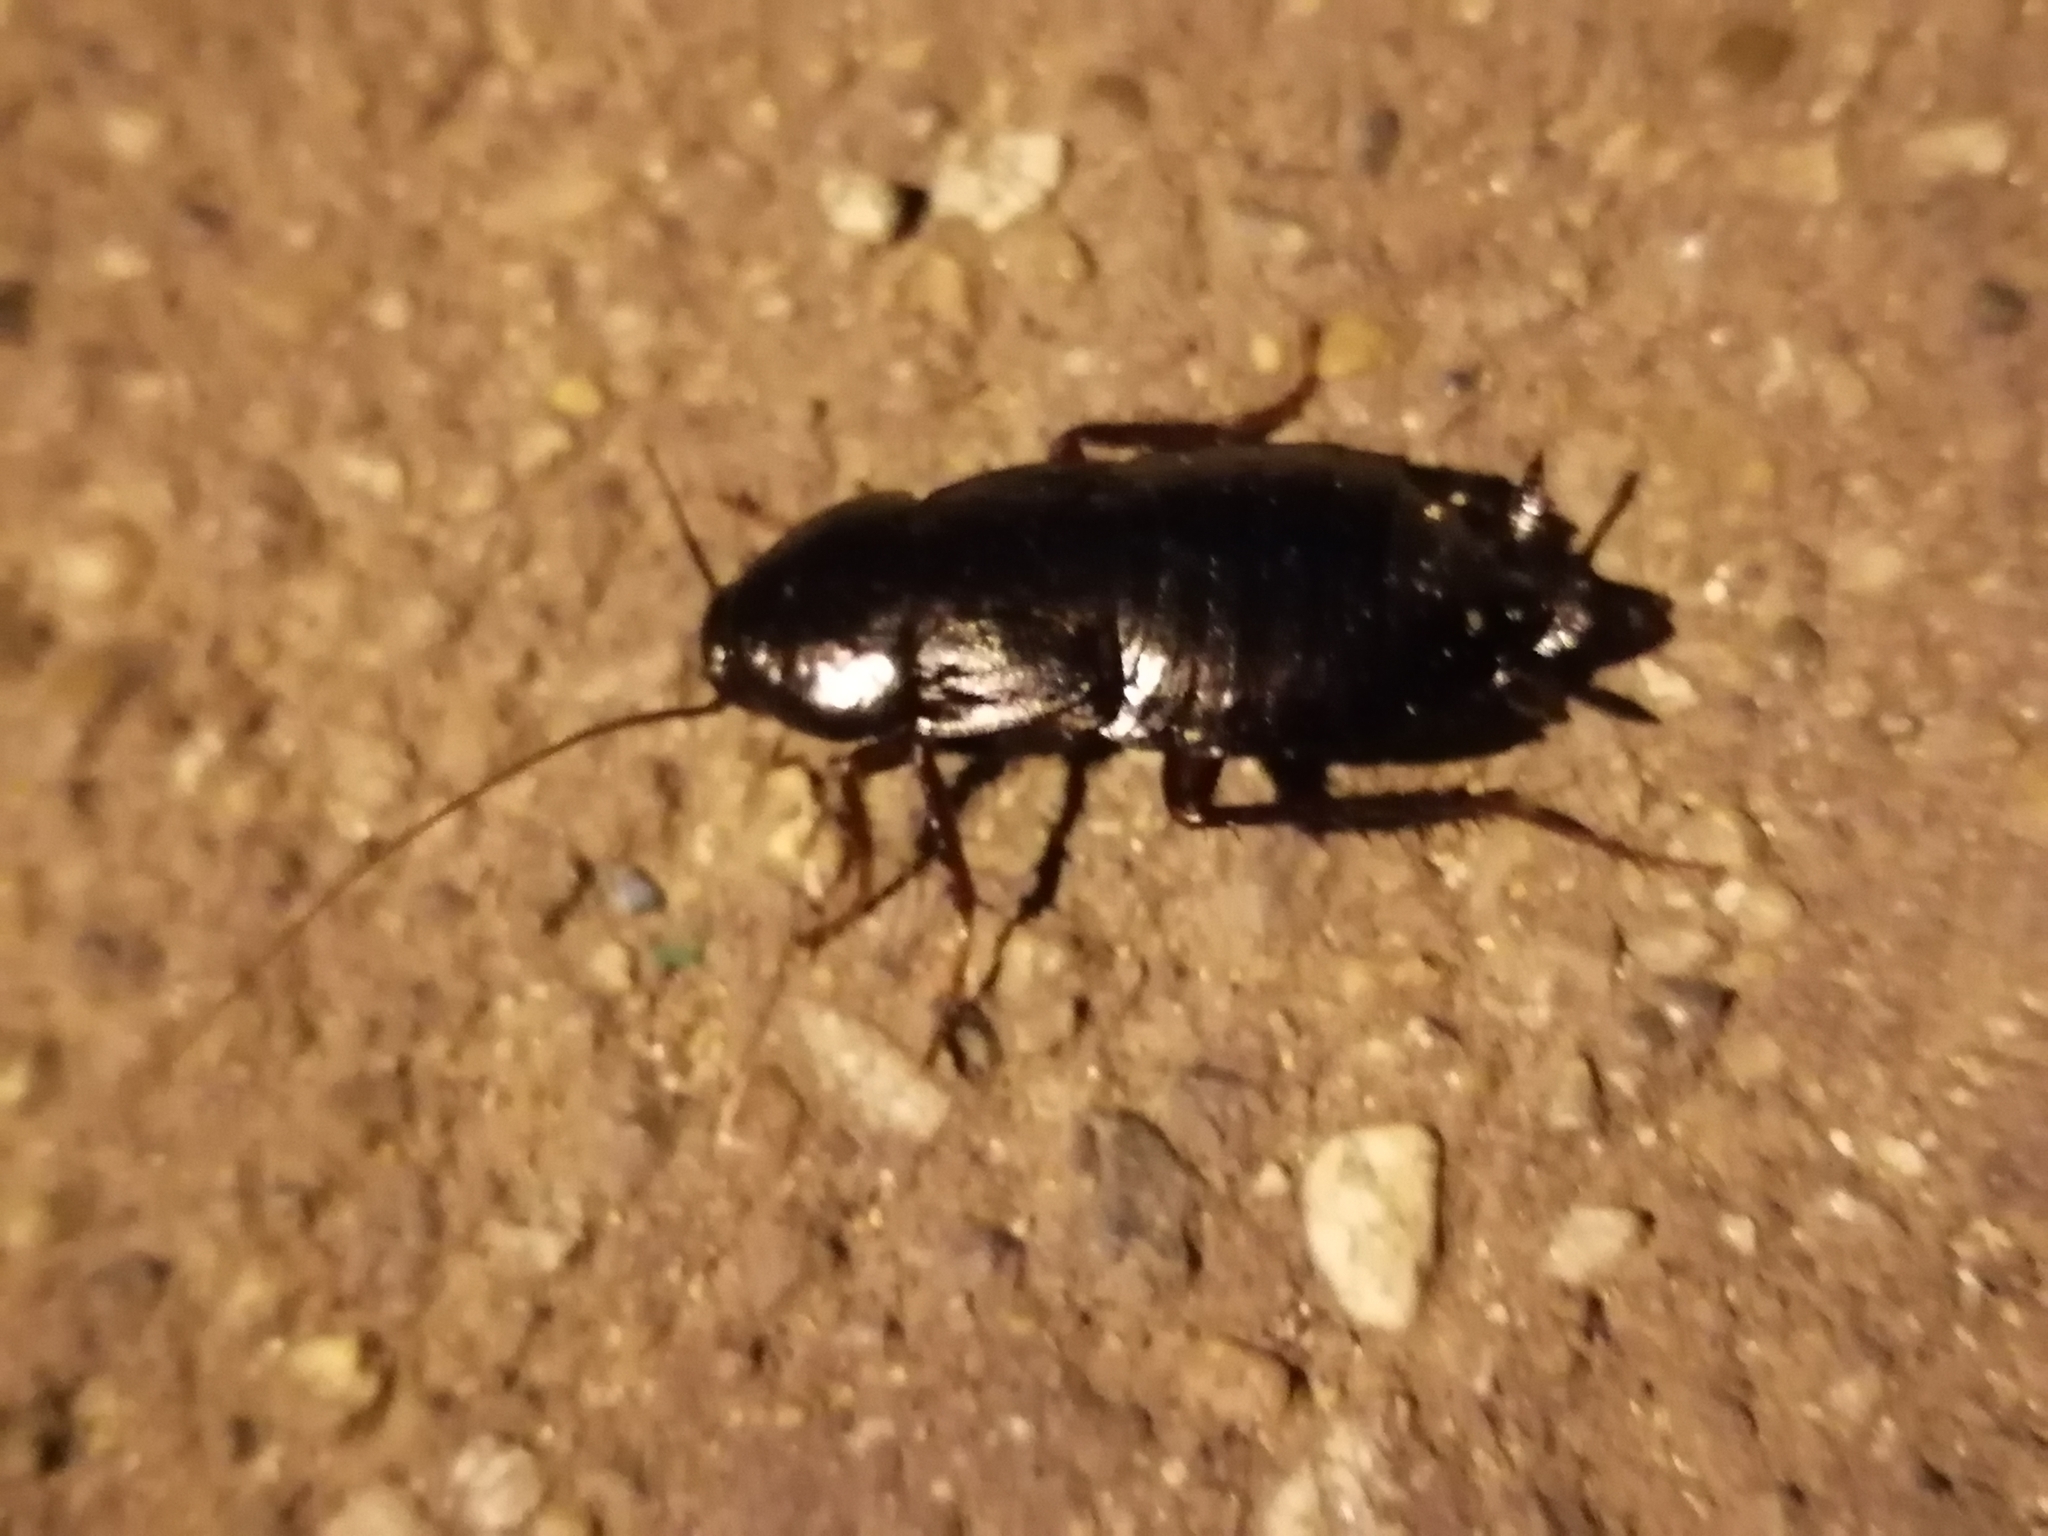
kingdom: Animalia
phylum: Arthropoda
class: Insecta
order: Blattodea
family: Blattidae
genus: Blatta
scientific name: Blatta orientalis
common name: Oriental cockroach
